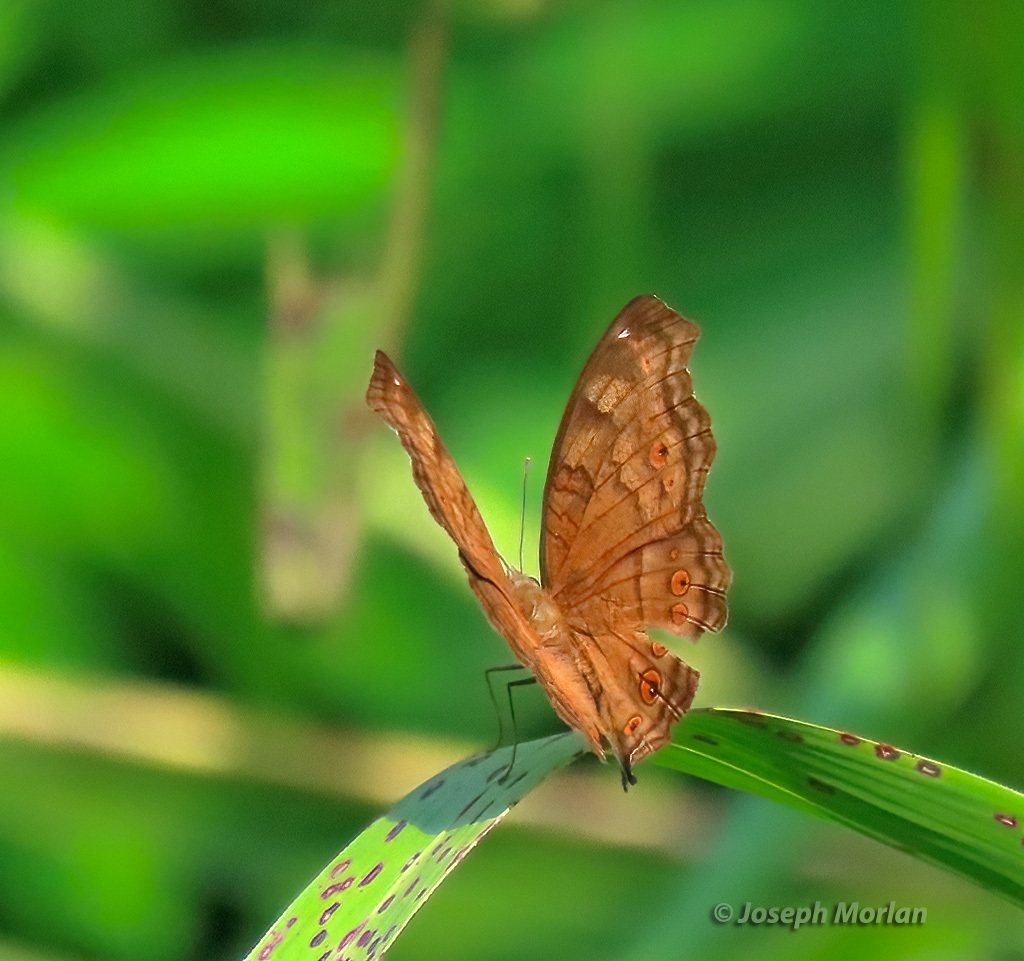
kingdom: Animalia
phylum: Arthropoda
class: Insecta
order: Lepidoptera
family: Nymphalidae
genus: Junonia
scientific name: Junonia hedonia
